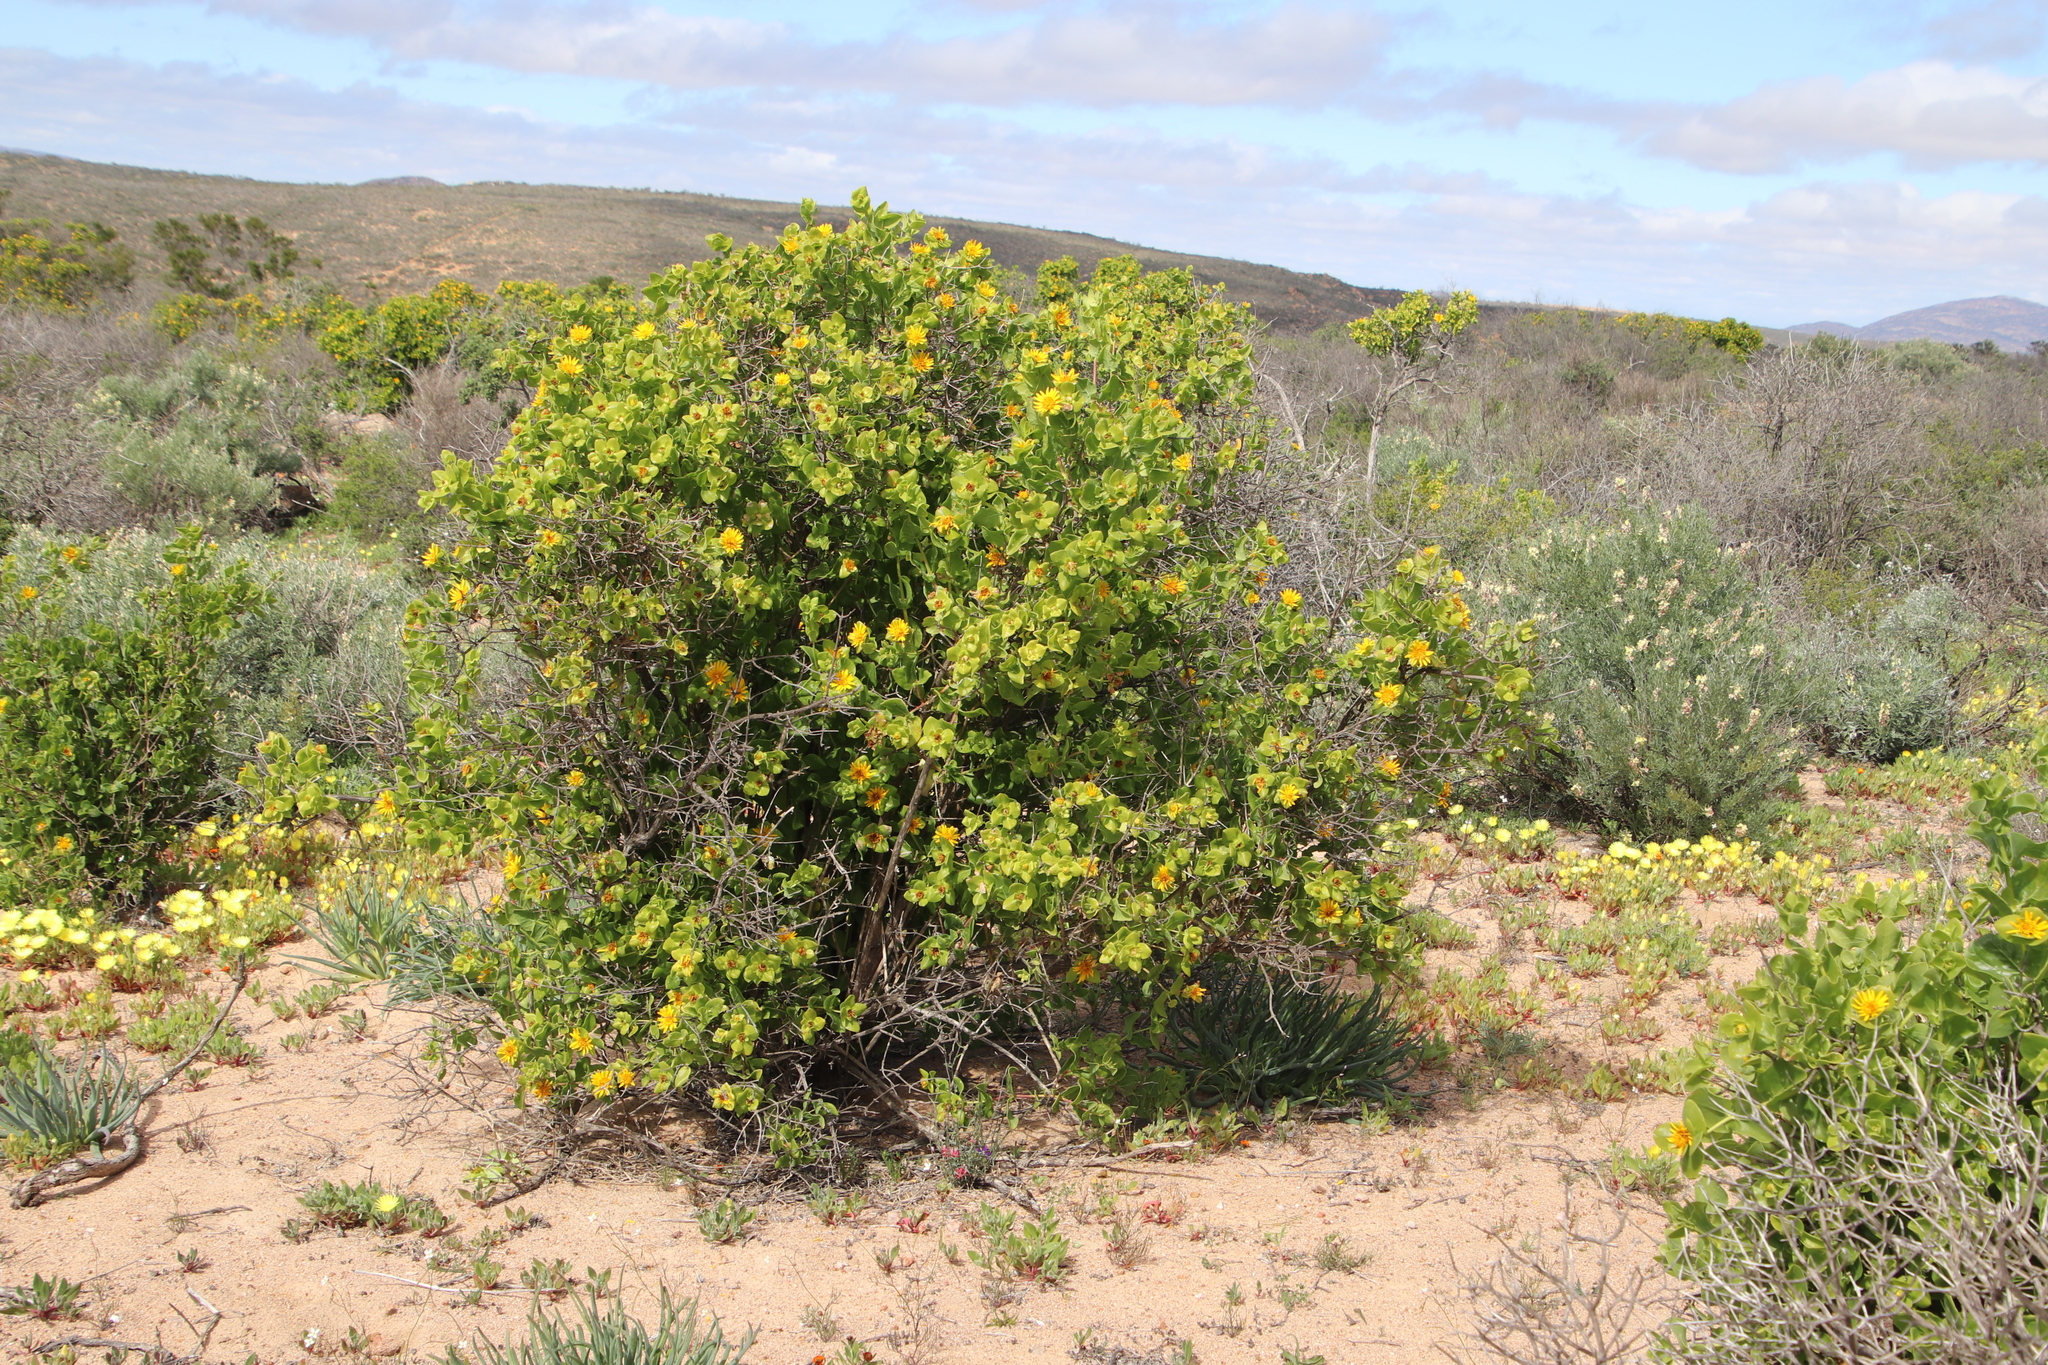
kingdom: Plantae
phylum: Tracheophyta
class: Magnoliopsida
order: Asterales
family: Asteraceae
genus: Didelta
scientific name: Didelta spinosa
